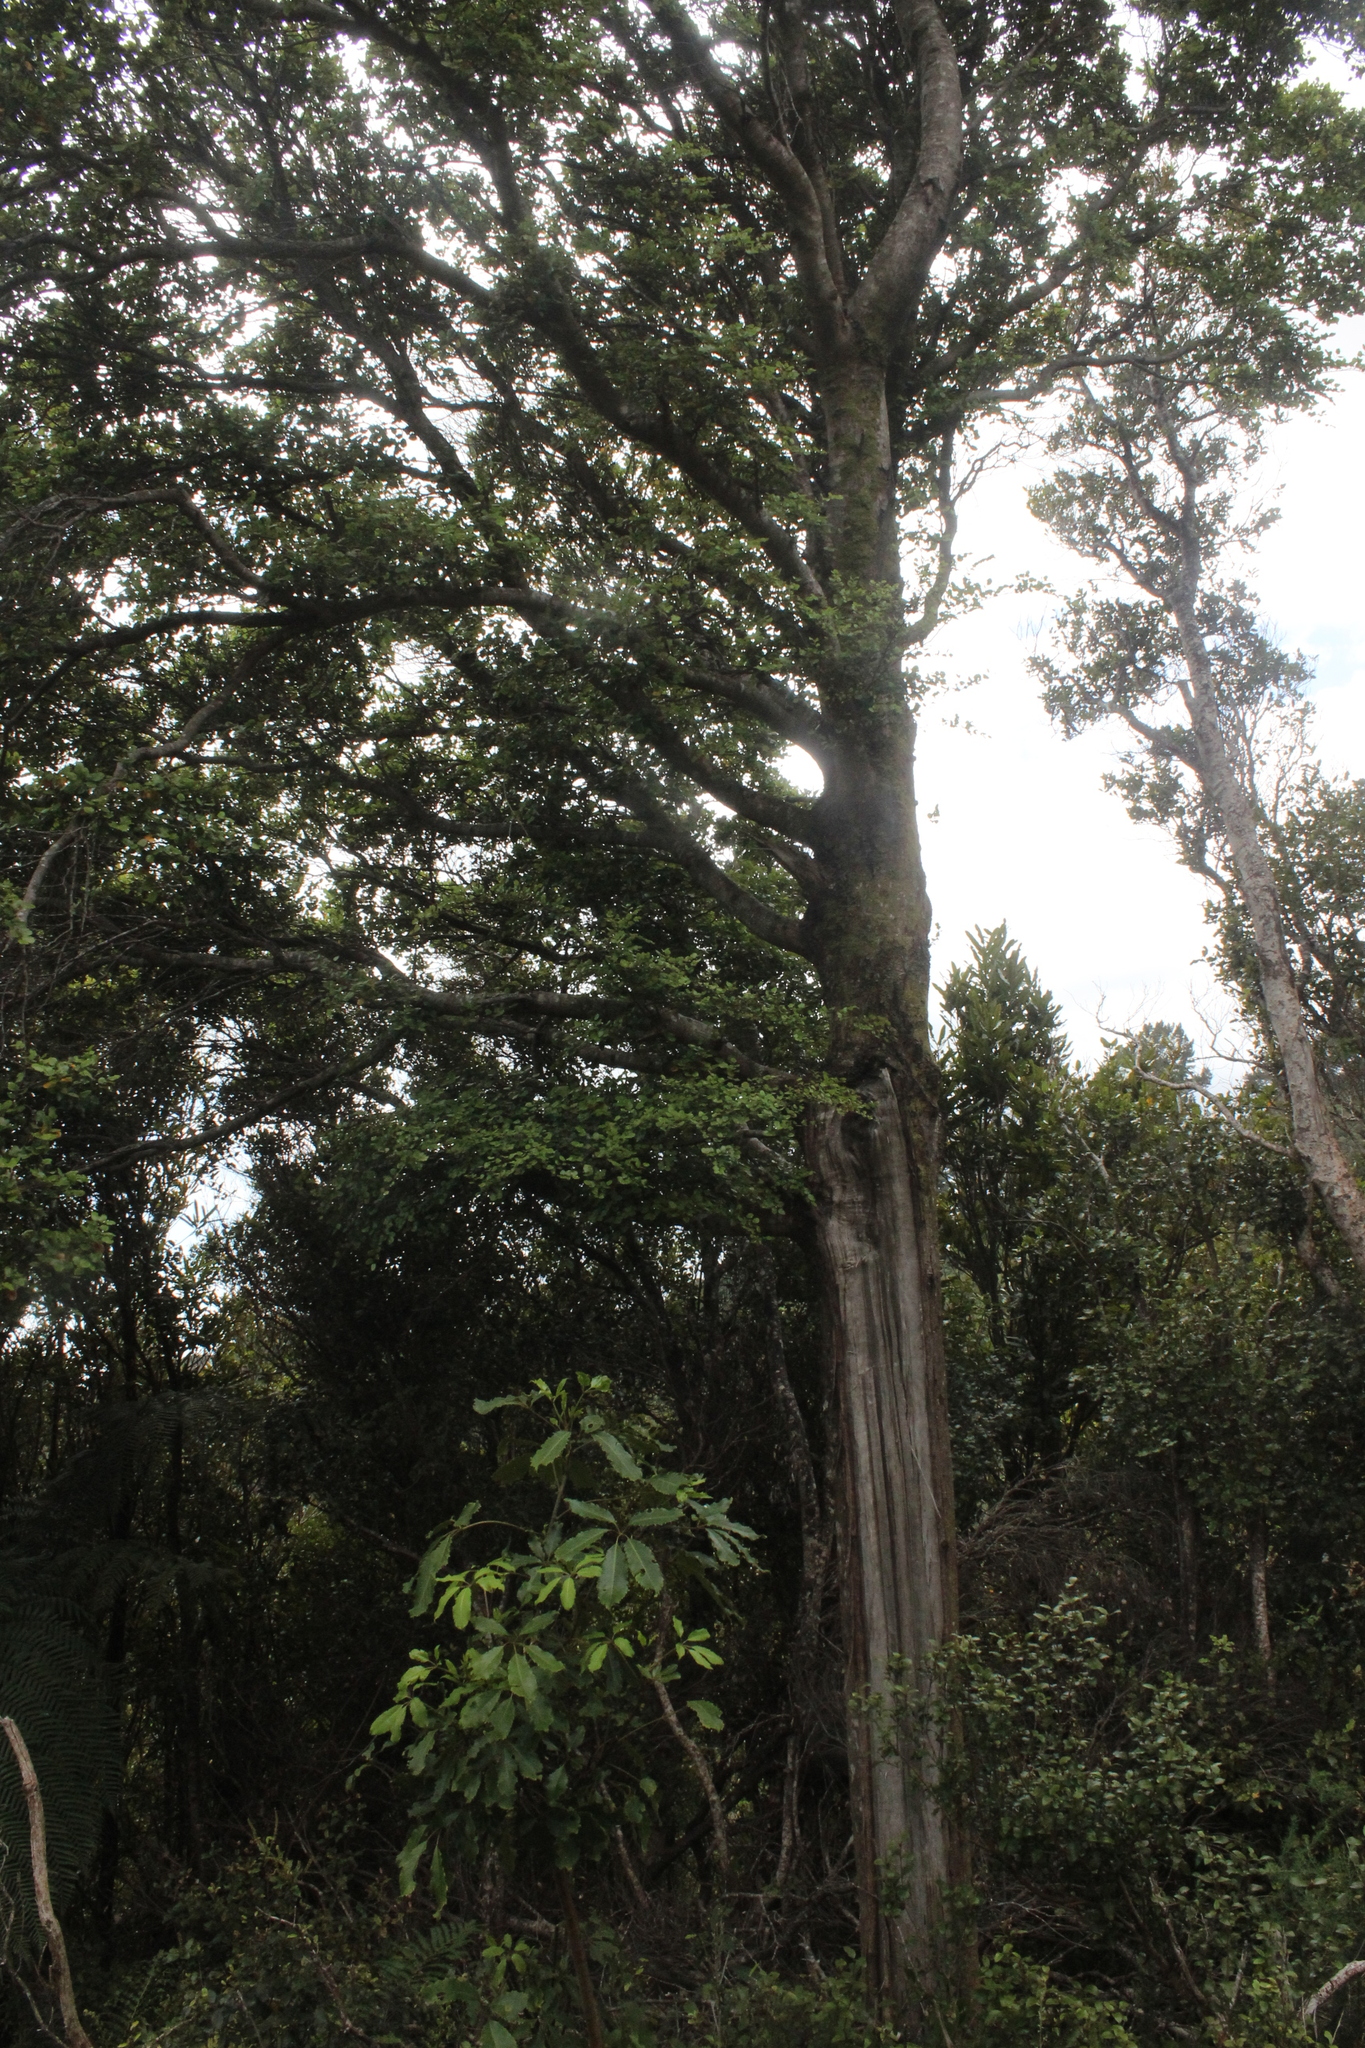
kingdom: Plantae
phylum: Tracheophyta
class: Magnoliopsida
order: Fagales
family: Nothofagaceae
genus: Nothofagus
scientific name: Nothofagus truncata
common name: Hard beech
